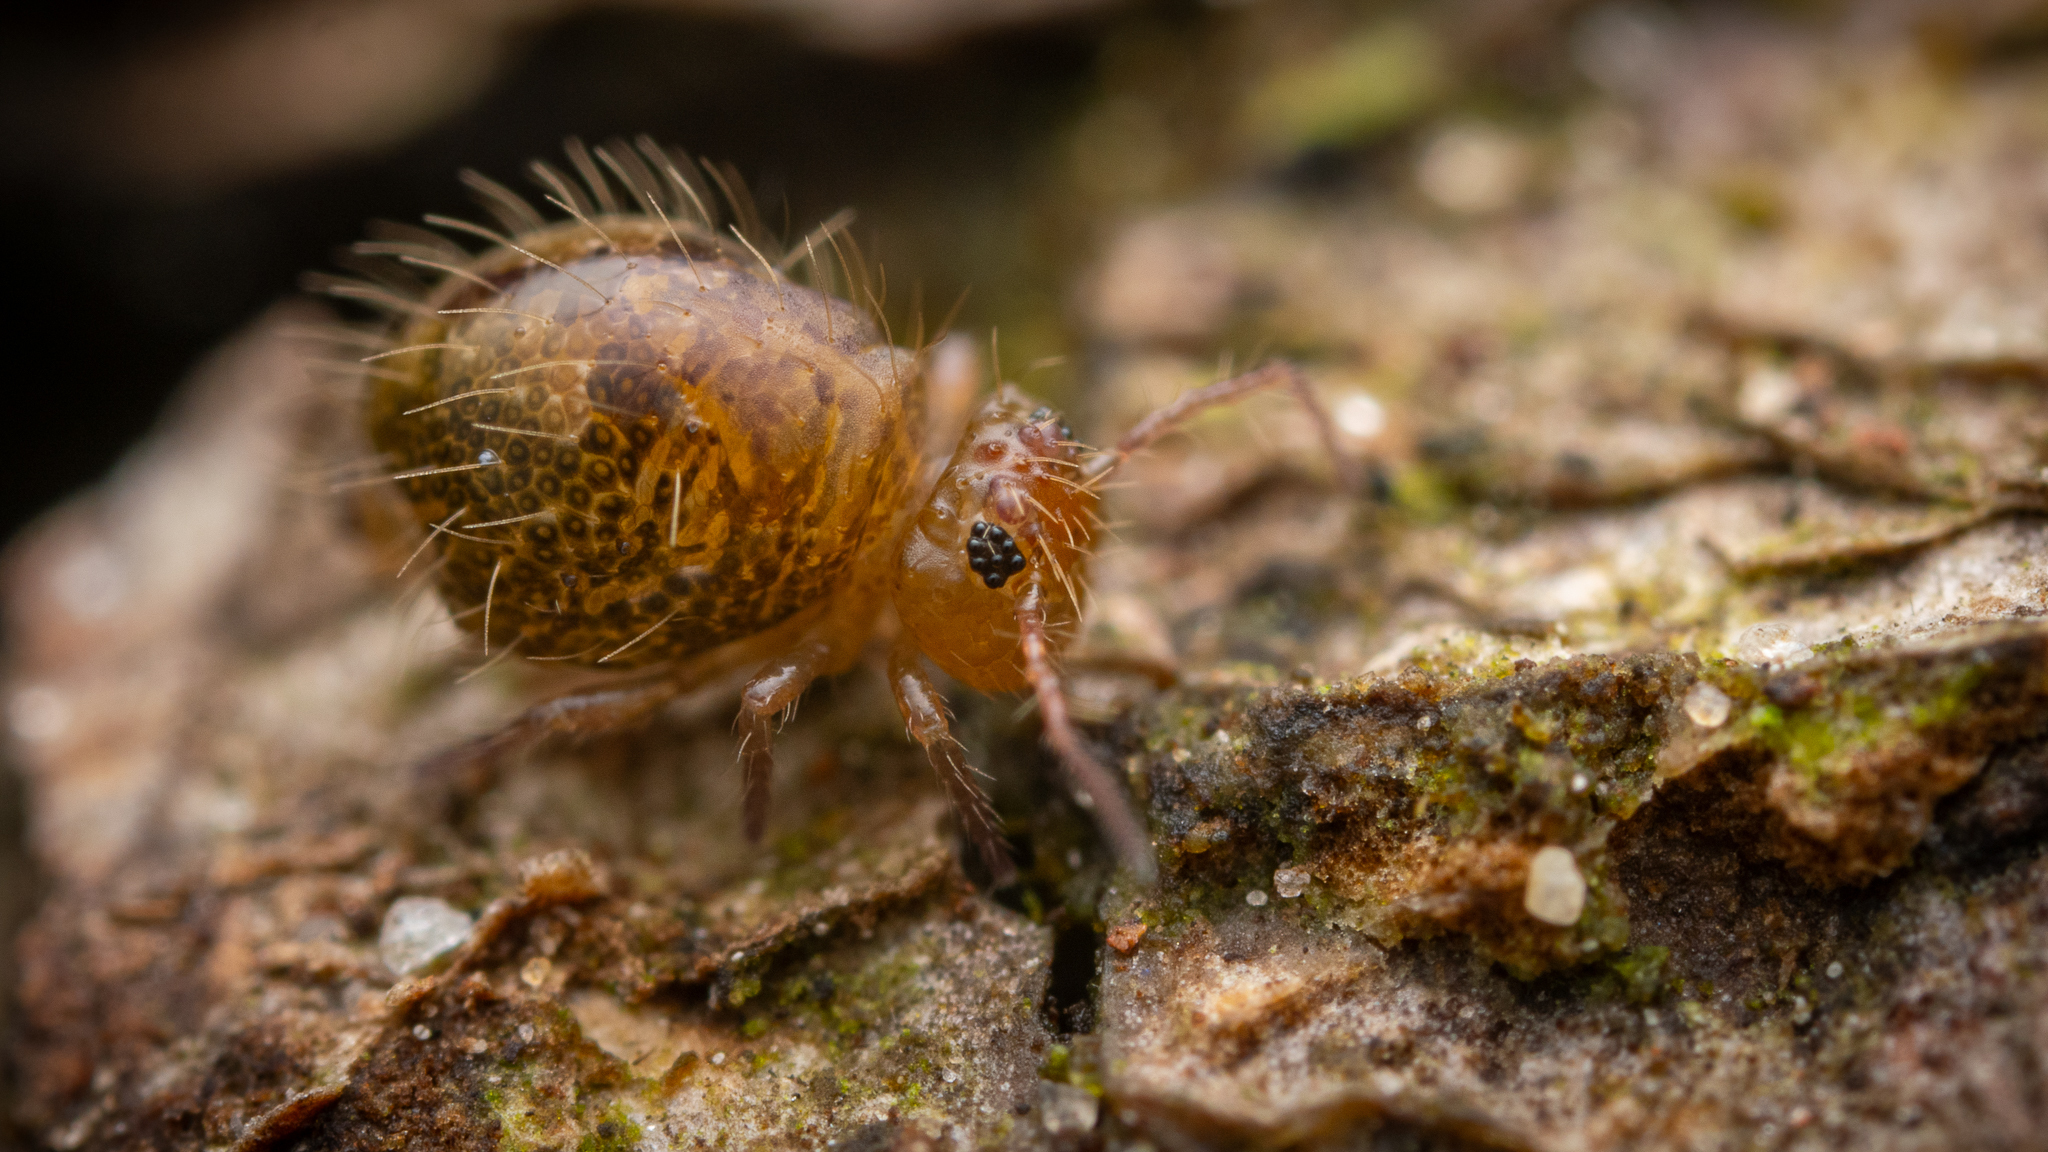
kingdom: Animalia
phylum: Arthropoda
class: Collembola
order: Symphypleona
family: Sminthuridae
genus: Allacma
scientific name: Allacma fusca
